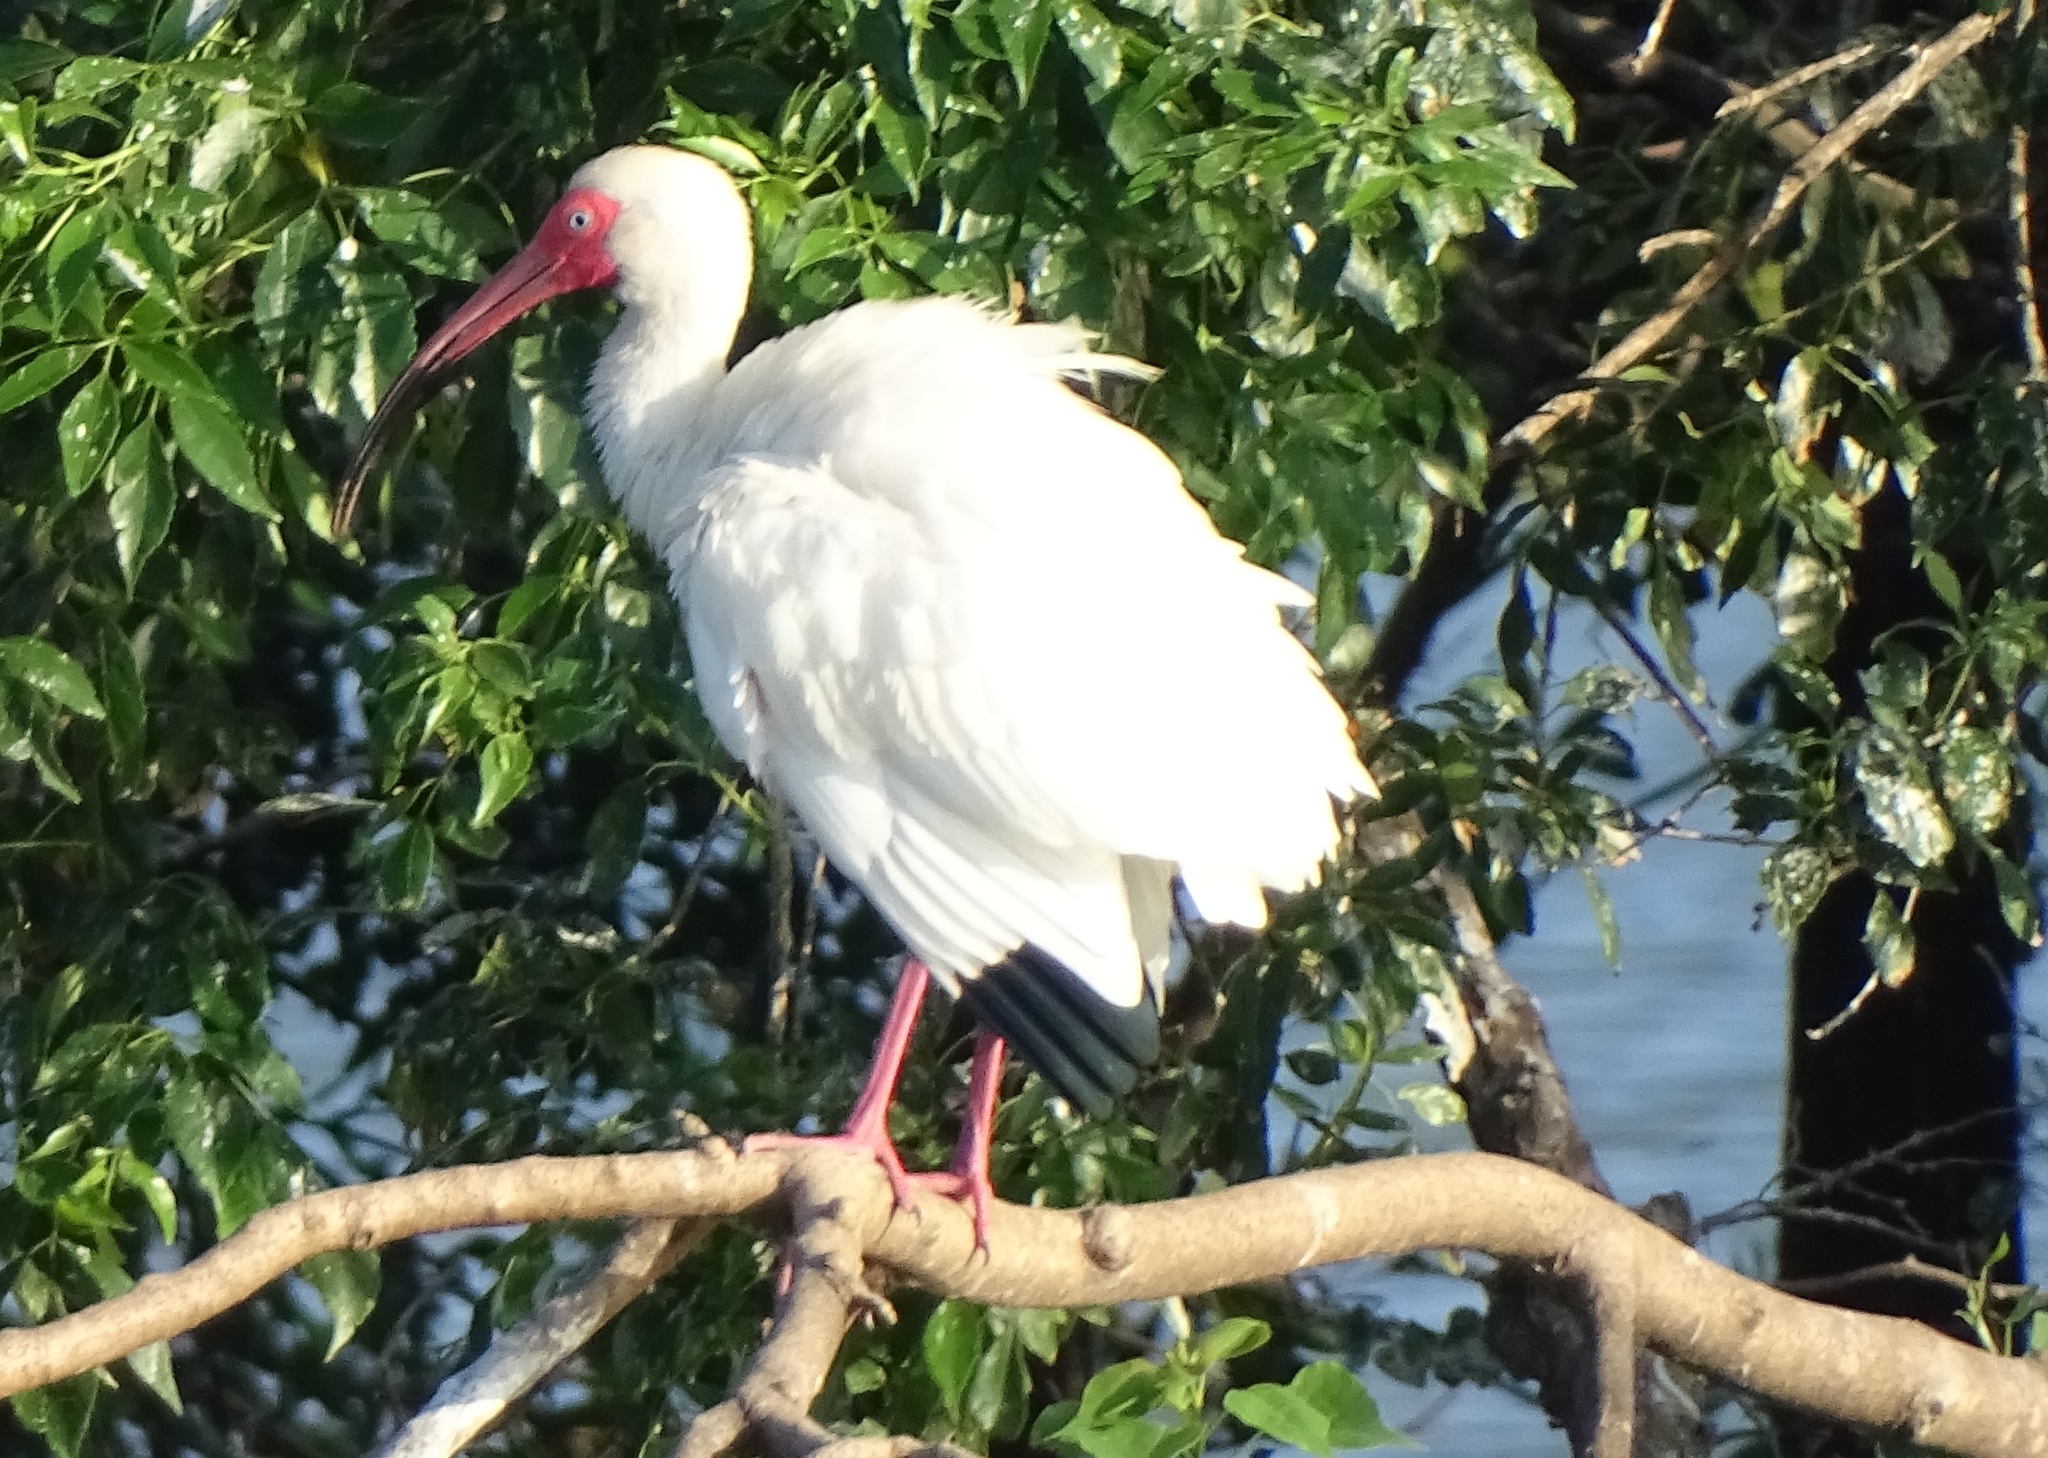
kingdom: Animalia
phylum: Chordata
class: Aves
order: Pelecaniformes
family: Threskiornithidae
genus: Eudocimus
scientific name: Eudocimus albus
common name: White ibis
